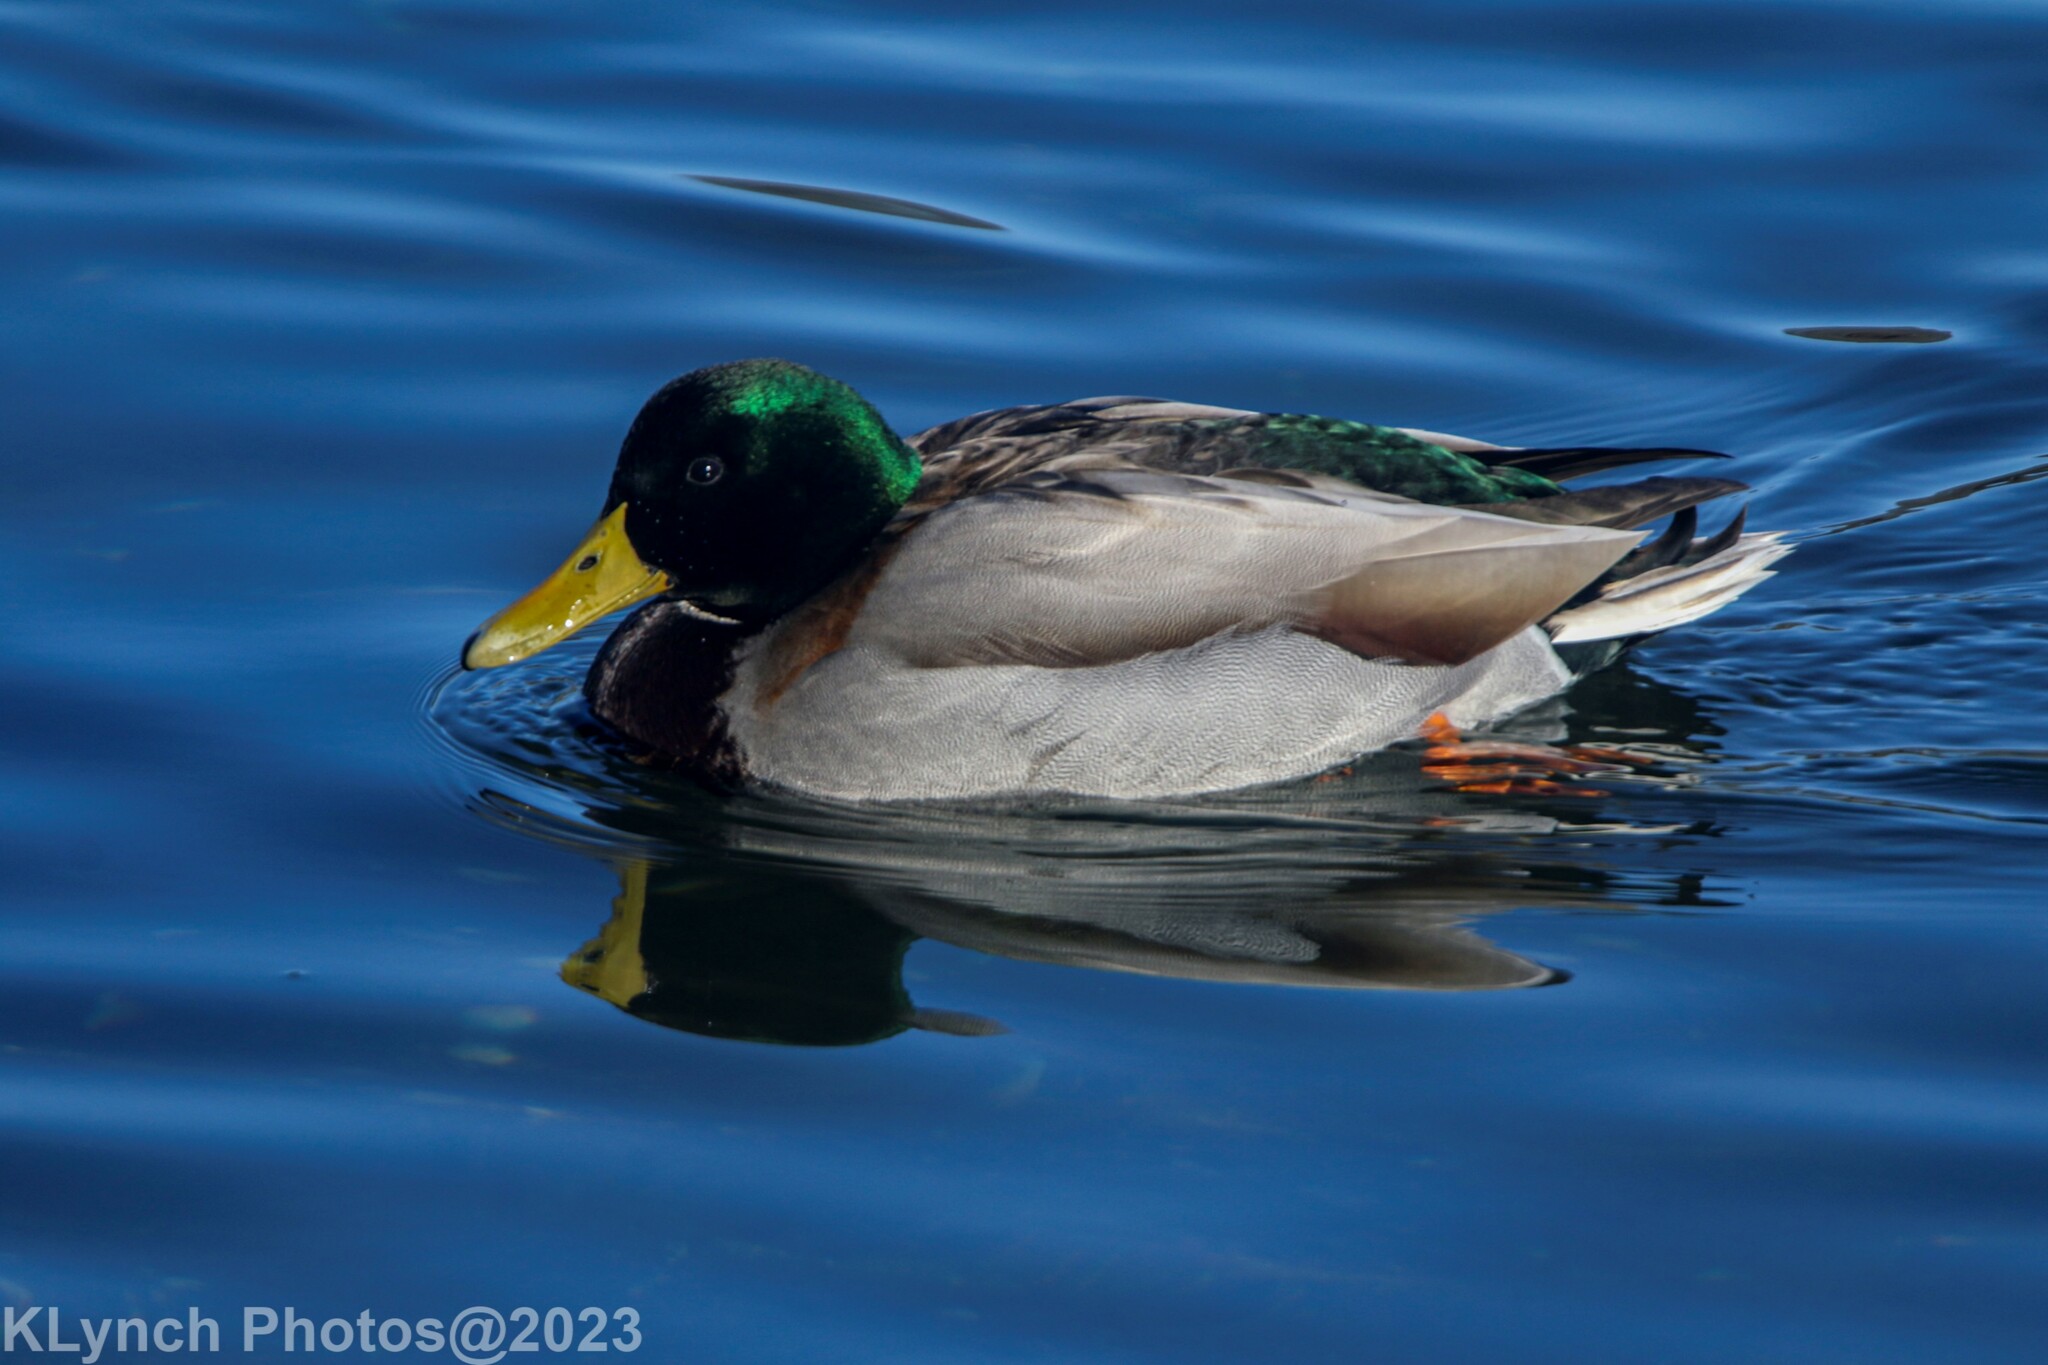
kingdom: Animalia
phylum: Chordata
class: Aves
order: Anseriformes
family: Anatidae
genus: Anas
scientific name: Anas platyrhynchos
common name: Mallard
